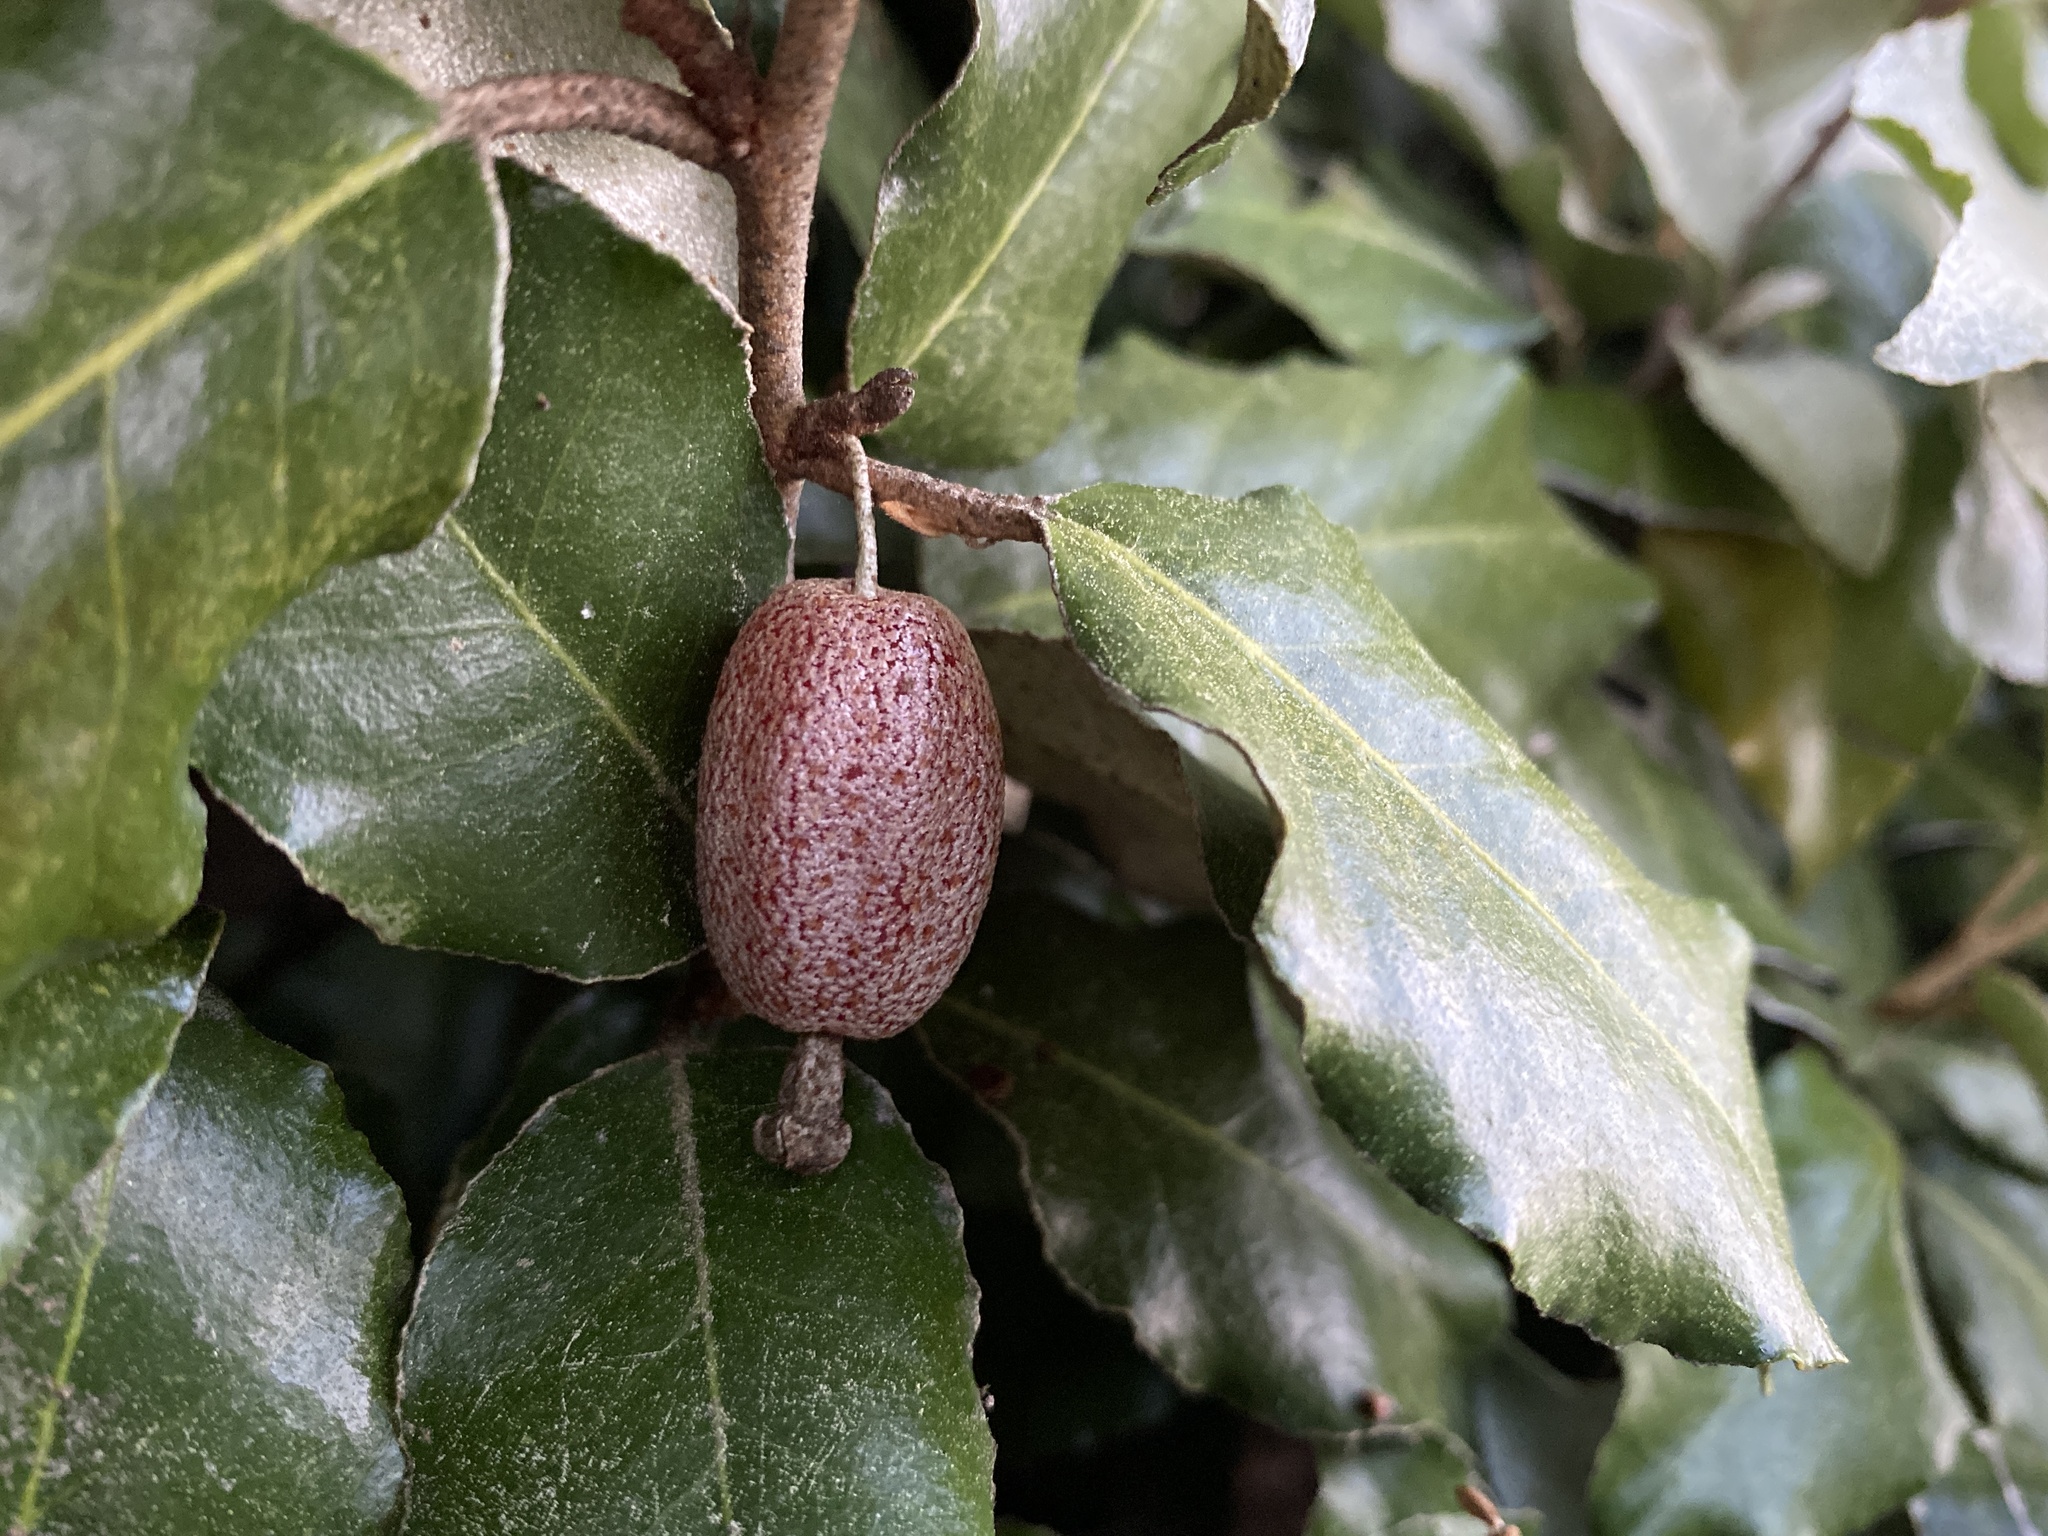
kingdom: Plantae
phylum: Tracheophyta
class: Magnoliopsida
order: Rosales
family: Elaeagnaceae
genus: Elaeagnus
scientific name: Elaeagnus pungens
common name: Spiny oleaster
